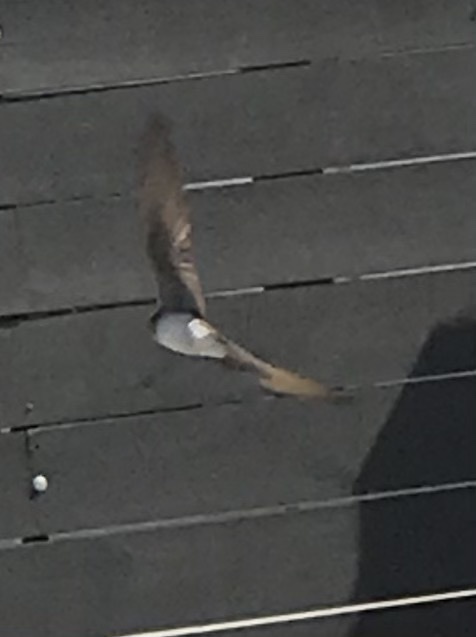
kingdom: Animalia
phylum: Chordata
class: Aves
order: Passeriformes
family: Hirundinidae
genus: Stelgidopteryx
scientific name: Stelgidopteryx serripennis
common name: Northern rough-winged swallow
